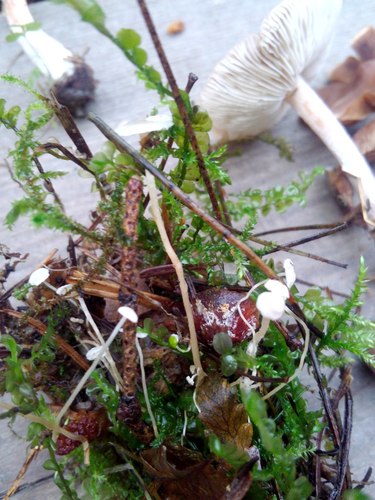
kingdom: Fungi
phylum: Basidiomycota
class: Agaricomycetes
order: Agaricales
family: Tricholomataceae
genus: Collybia
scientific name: Collybia
